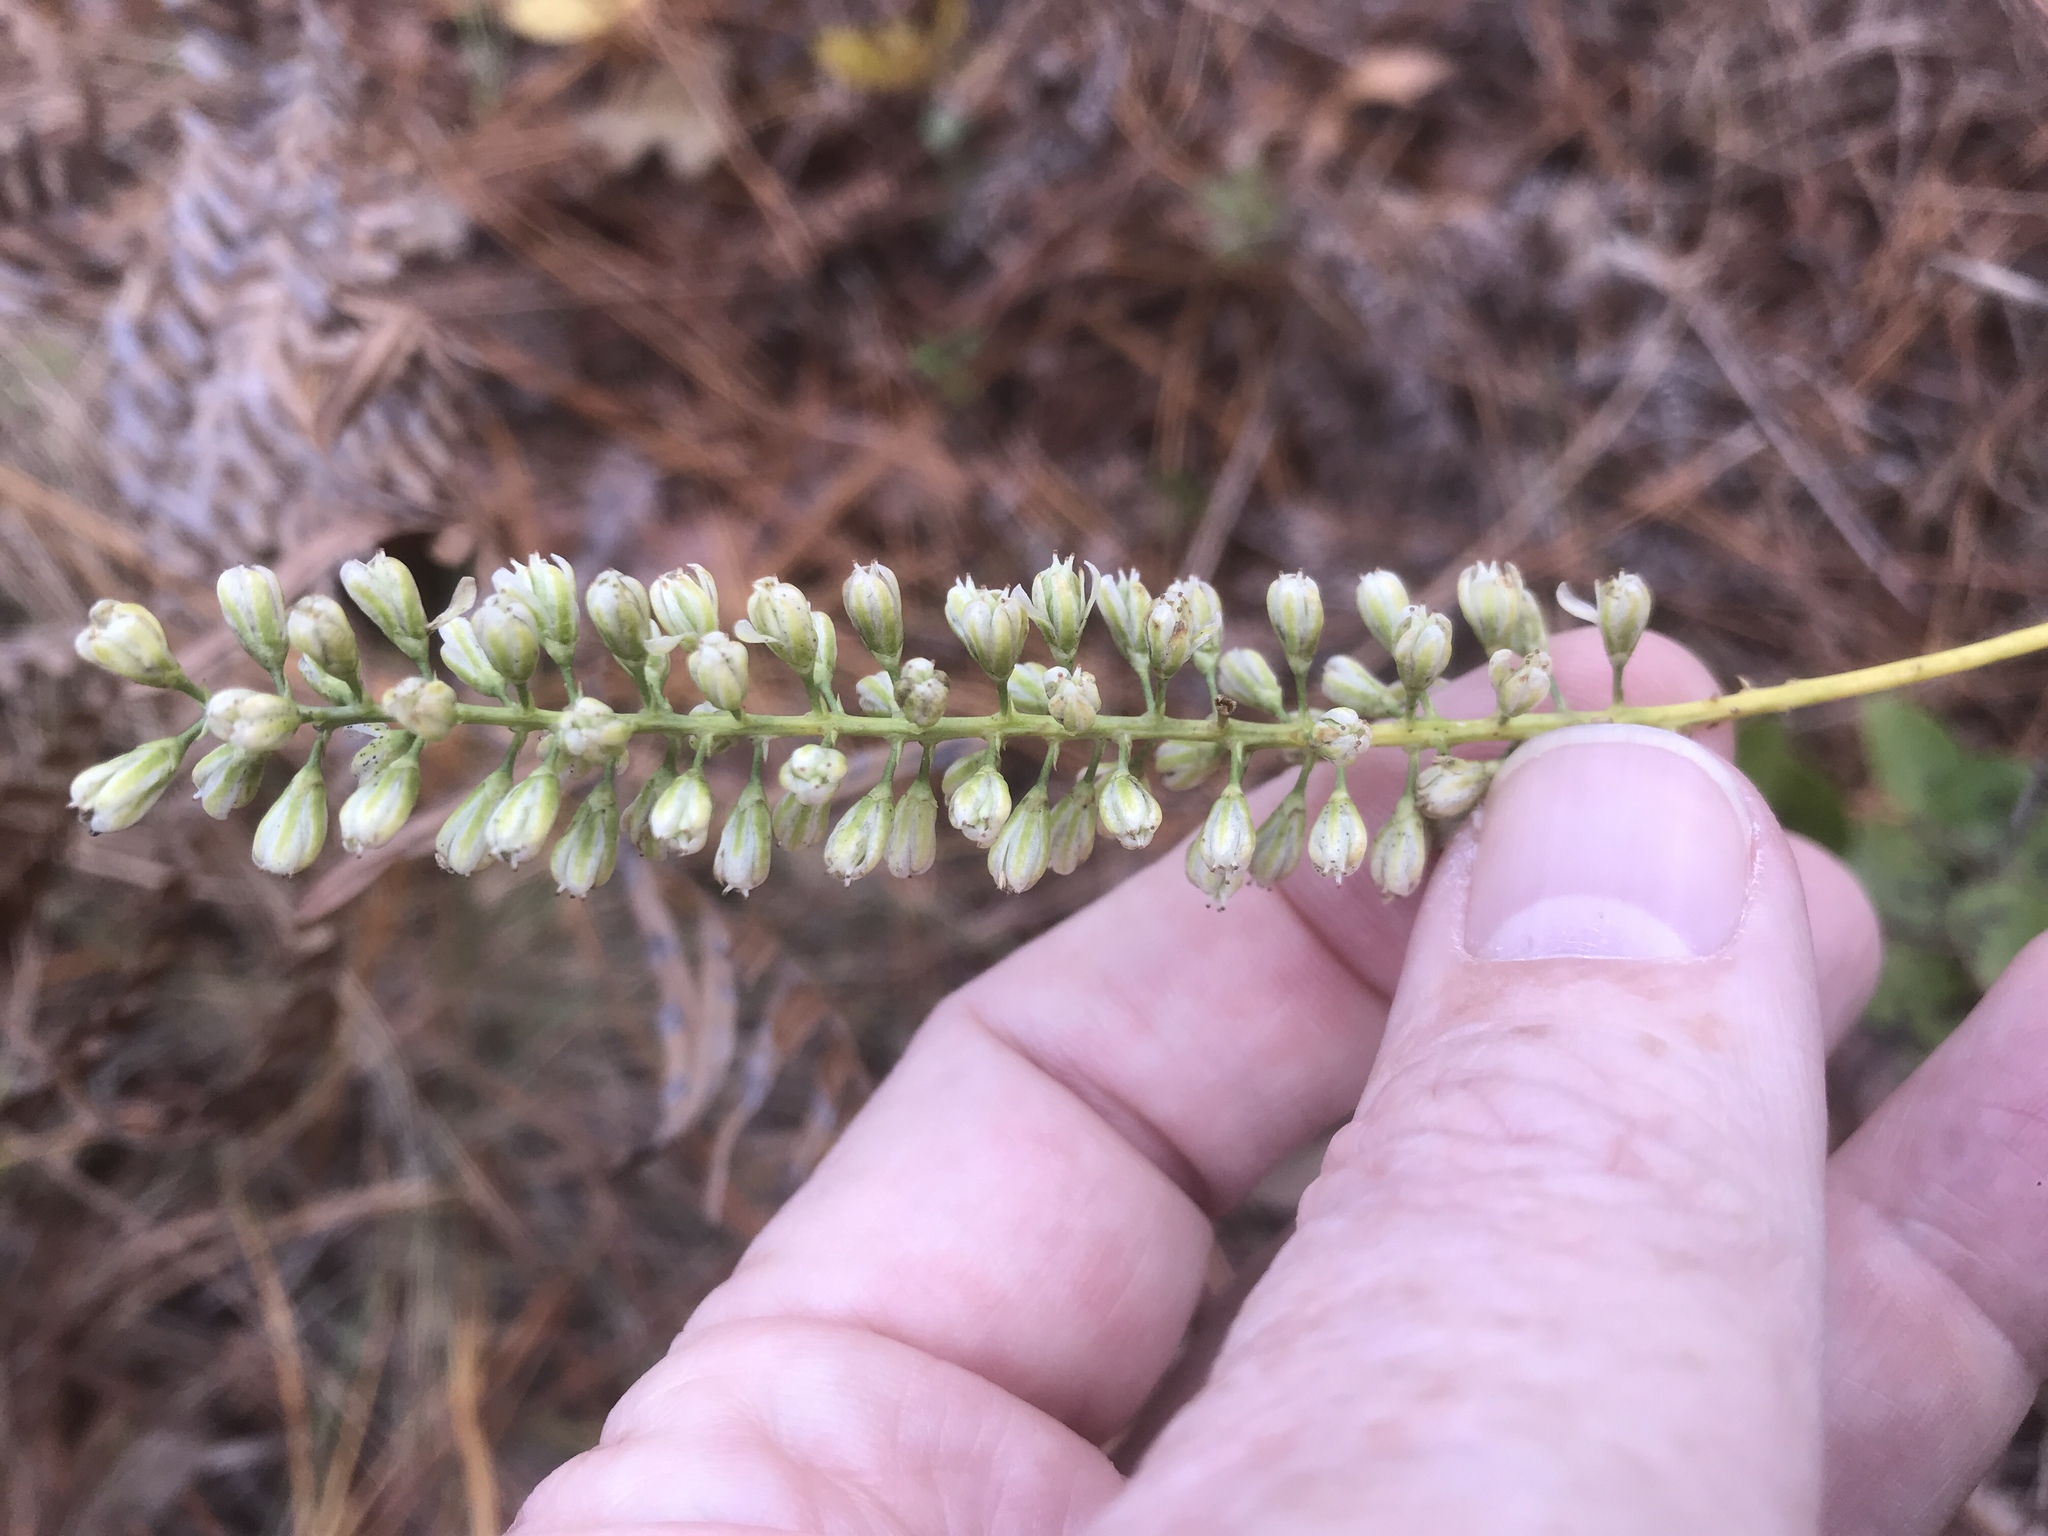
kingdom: Plantae
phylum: Tracheophyta
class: Liliopsida
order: Alismatales
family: Tofieldiaceae
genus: Tofieldia
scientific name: Tofieldia glabra
